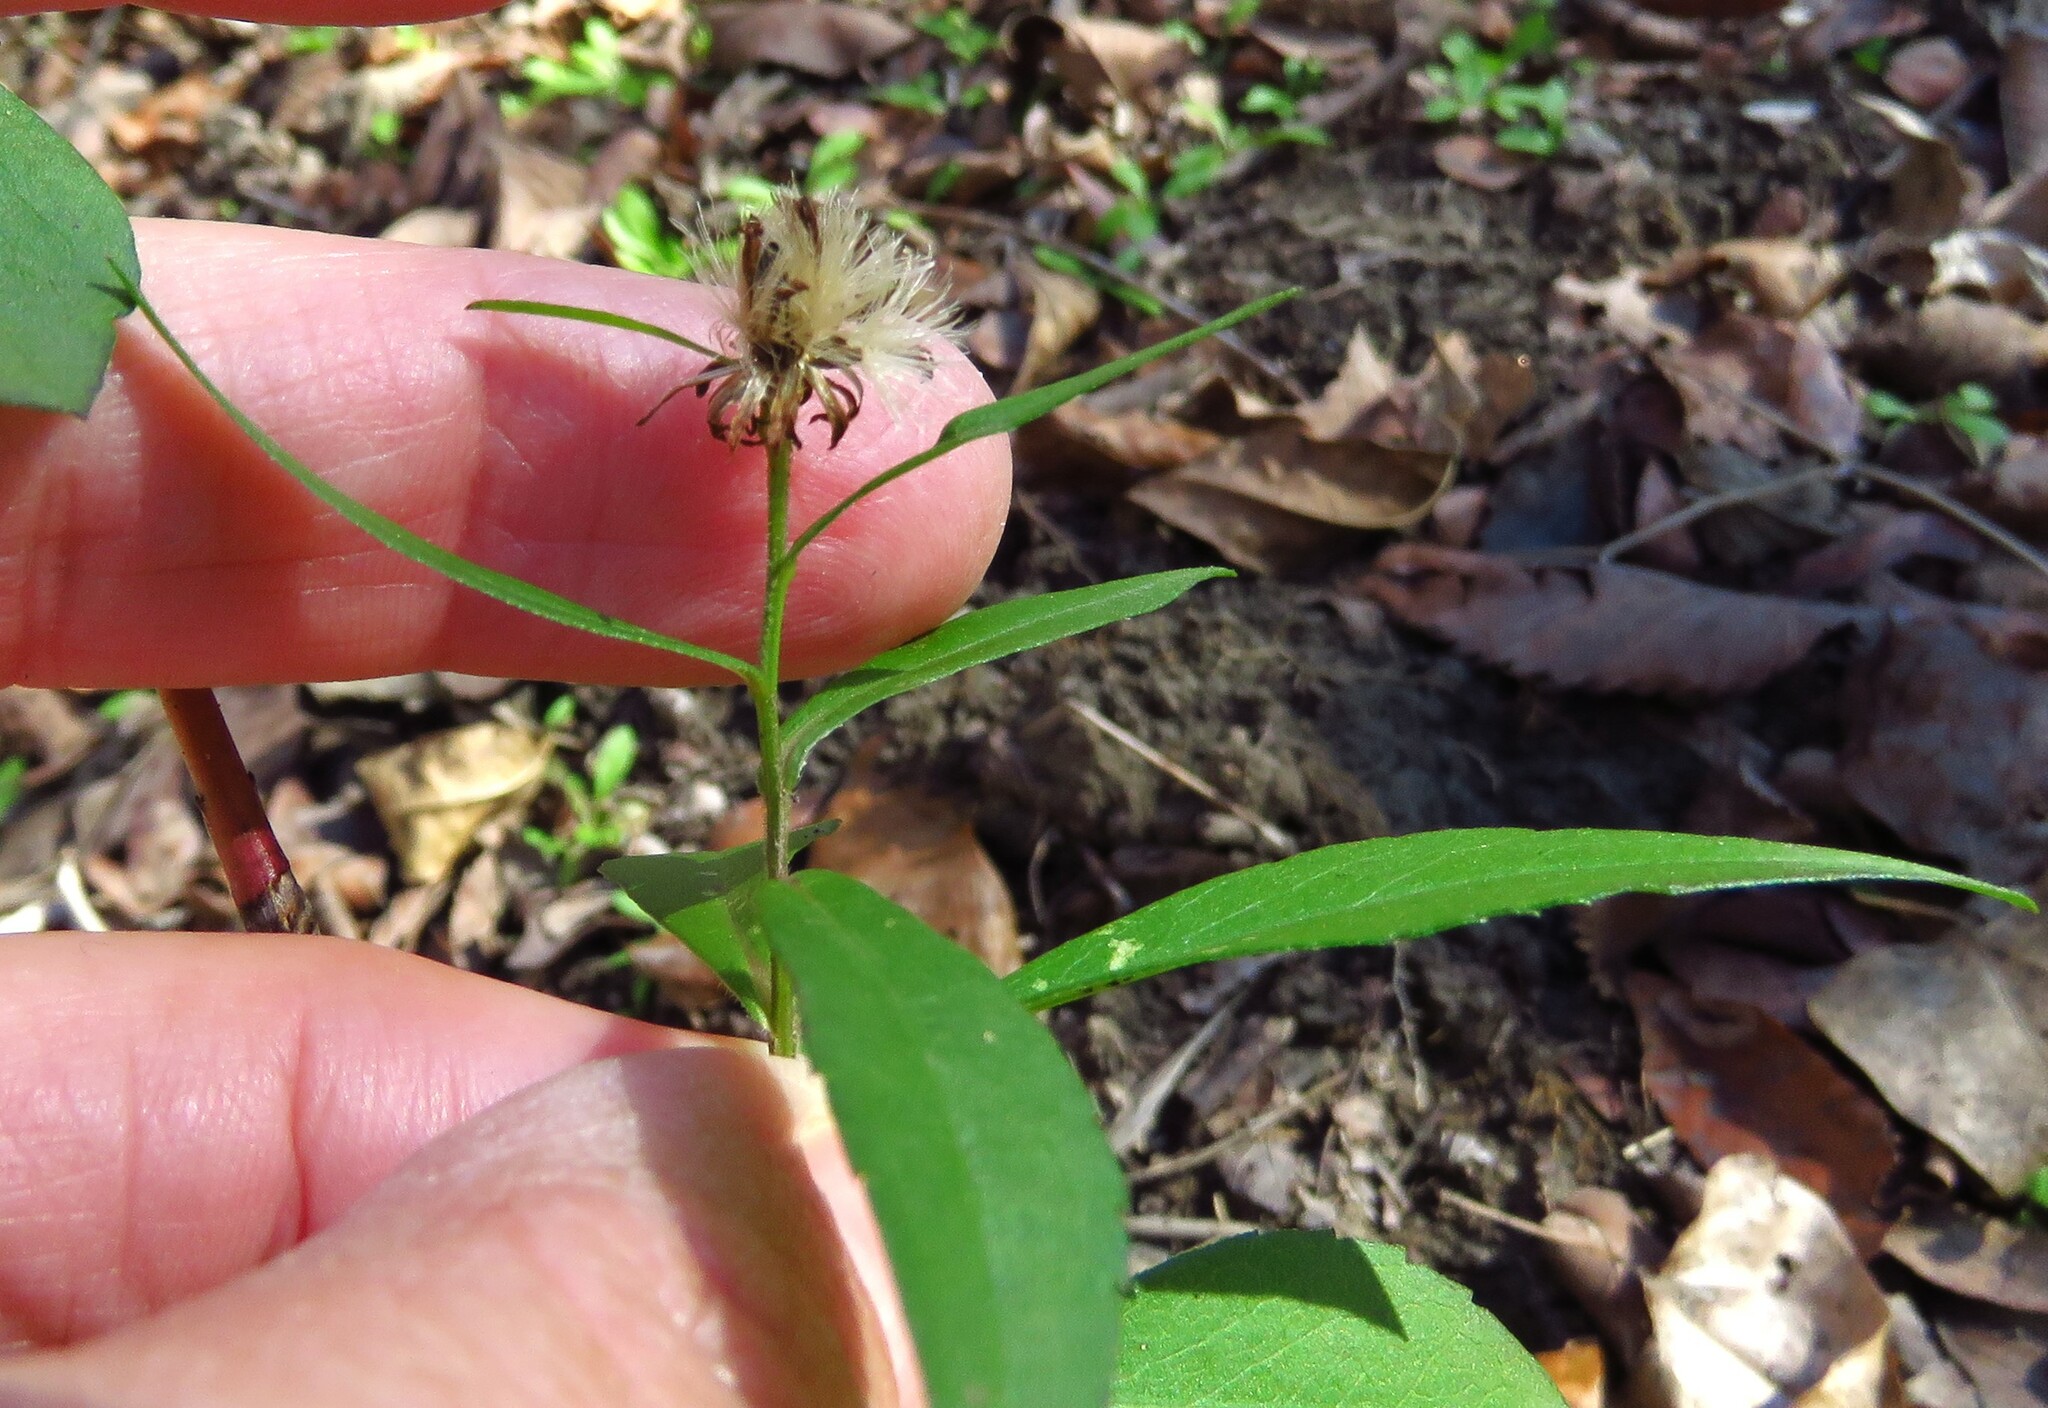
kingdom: Plantae
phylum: Tracheophyta
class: Magnoliopsida
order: Asterales
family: Asteraceae
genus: Symphyotrichum
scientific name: Symphyotrichum drummondii
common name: Drummond's aster
